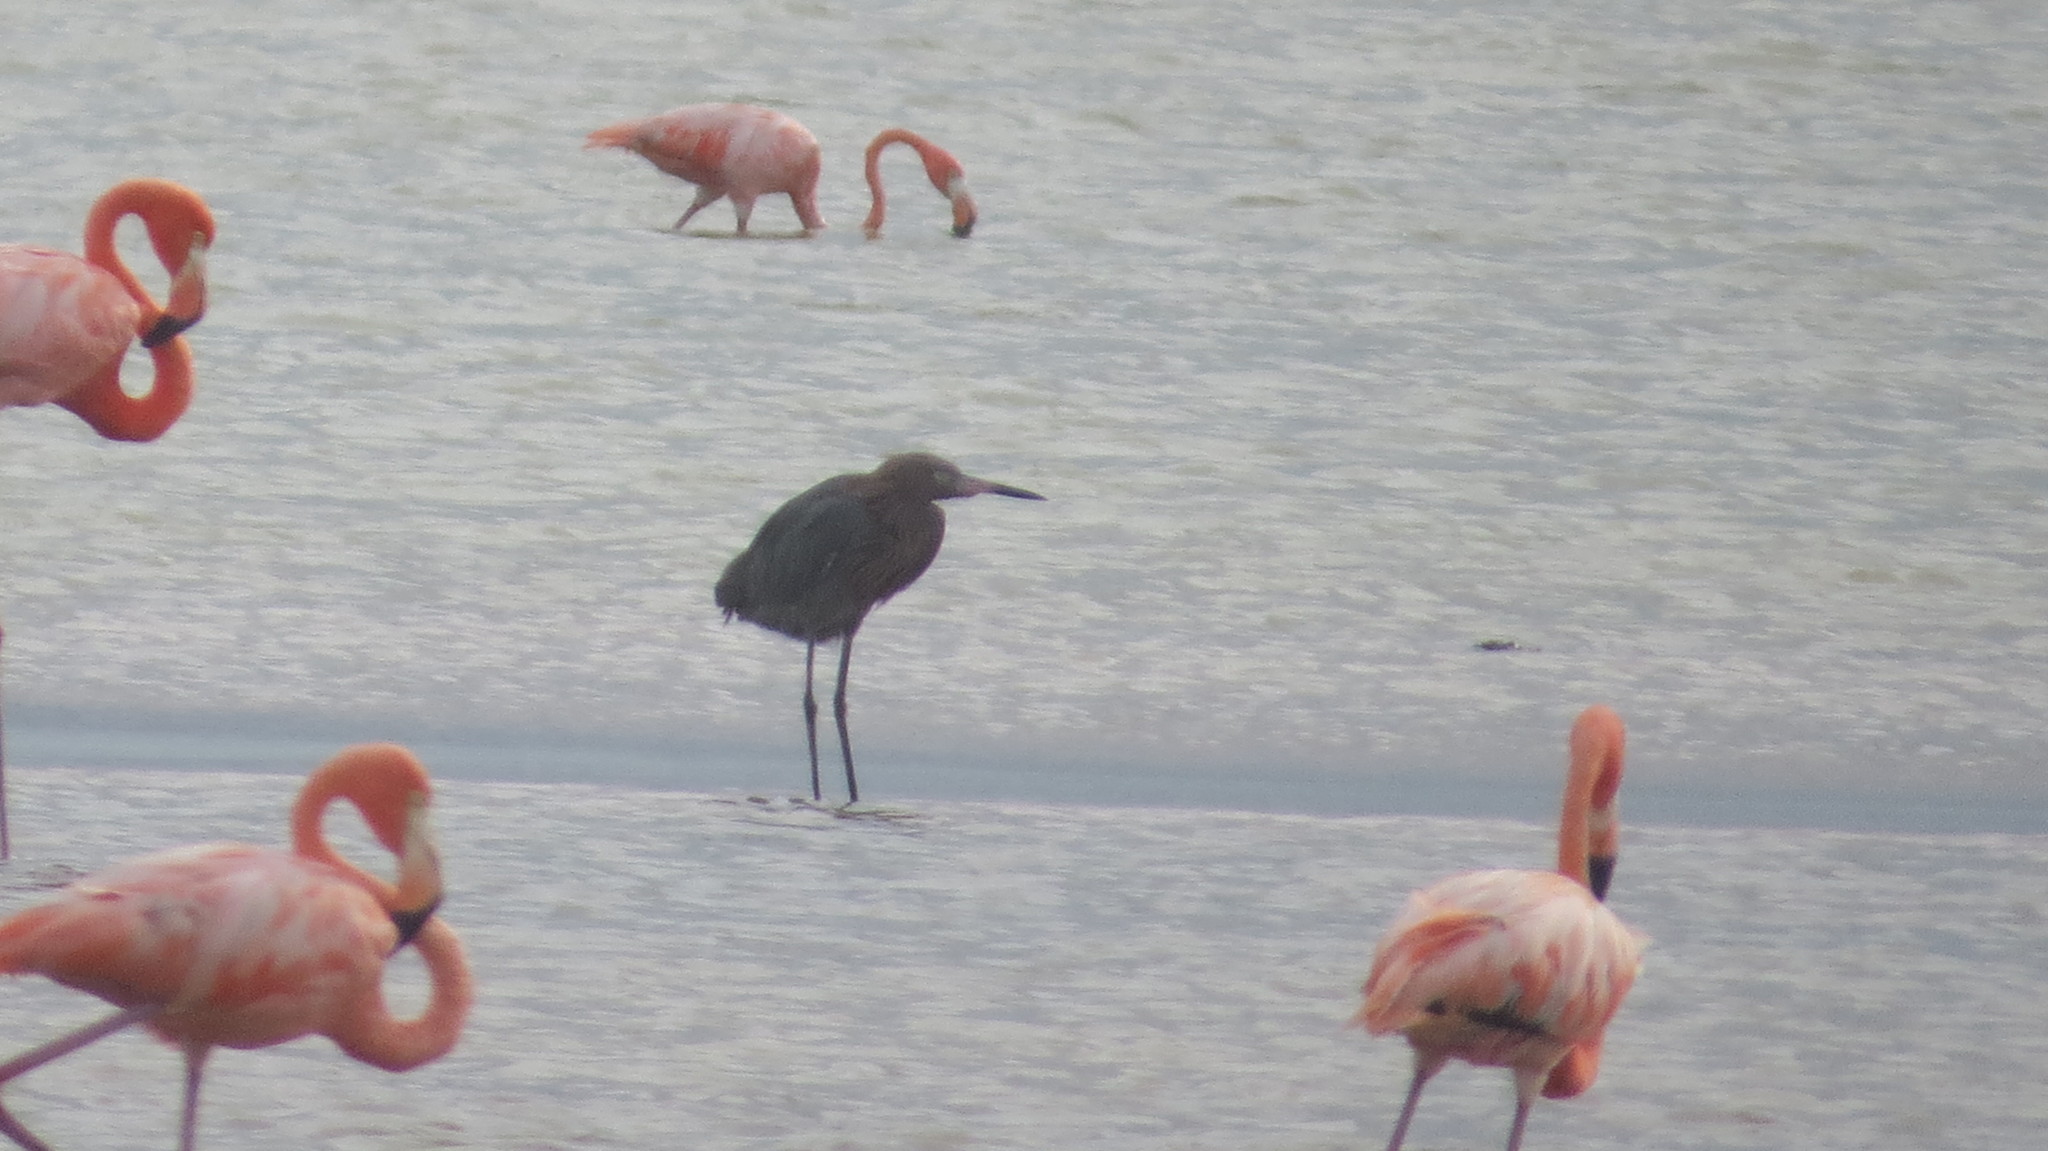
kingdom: Animalia
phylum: Chordata
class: Aves
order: Pelecaniformes
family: Ardeidae
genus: Egretta
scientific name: Egretta rufescens
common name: Reddish egret
